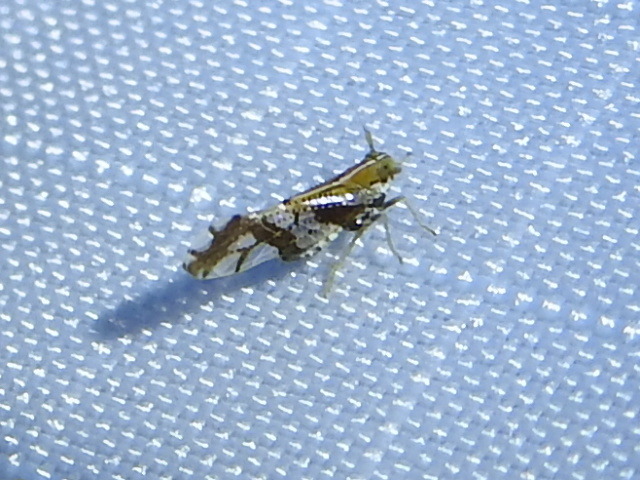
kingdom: Animalia
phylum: Arthropoda
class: Insecta
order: Hemiptera
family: Delphacidae
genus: Liburniella
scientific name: Liburniella ornata
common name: Ornate planthopper
